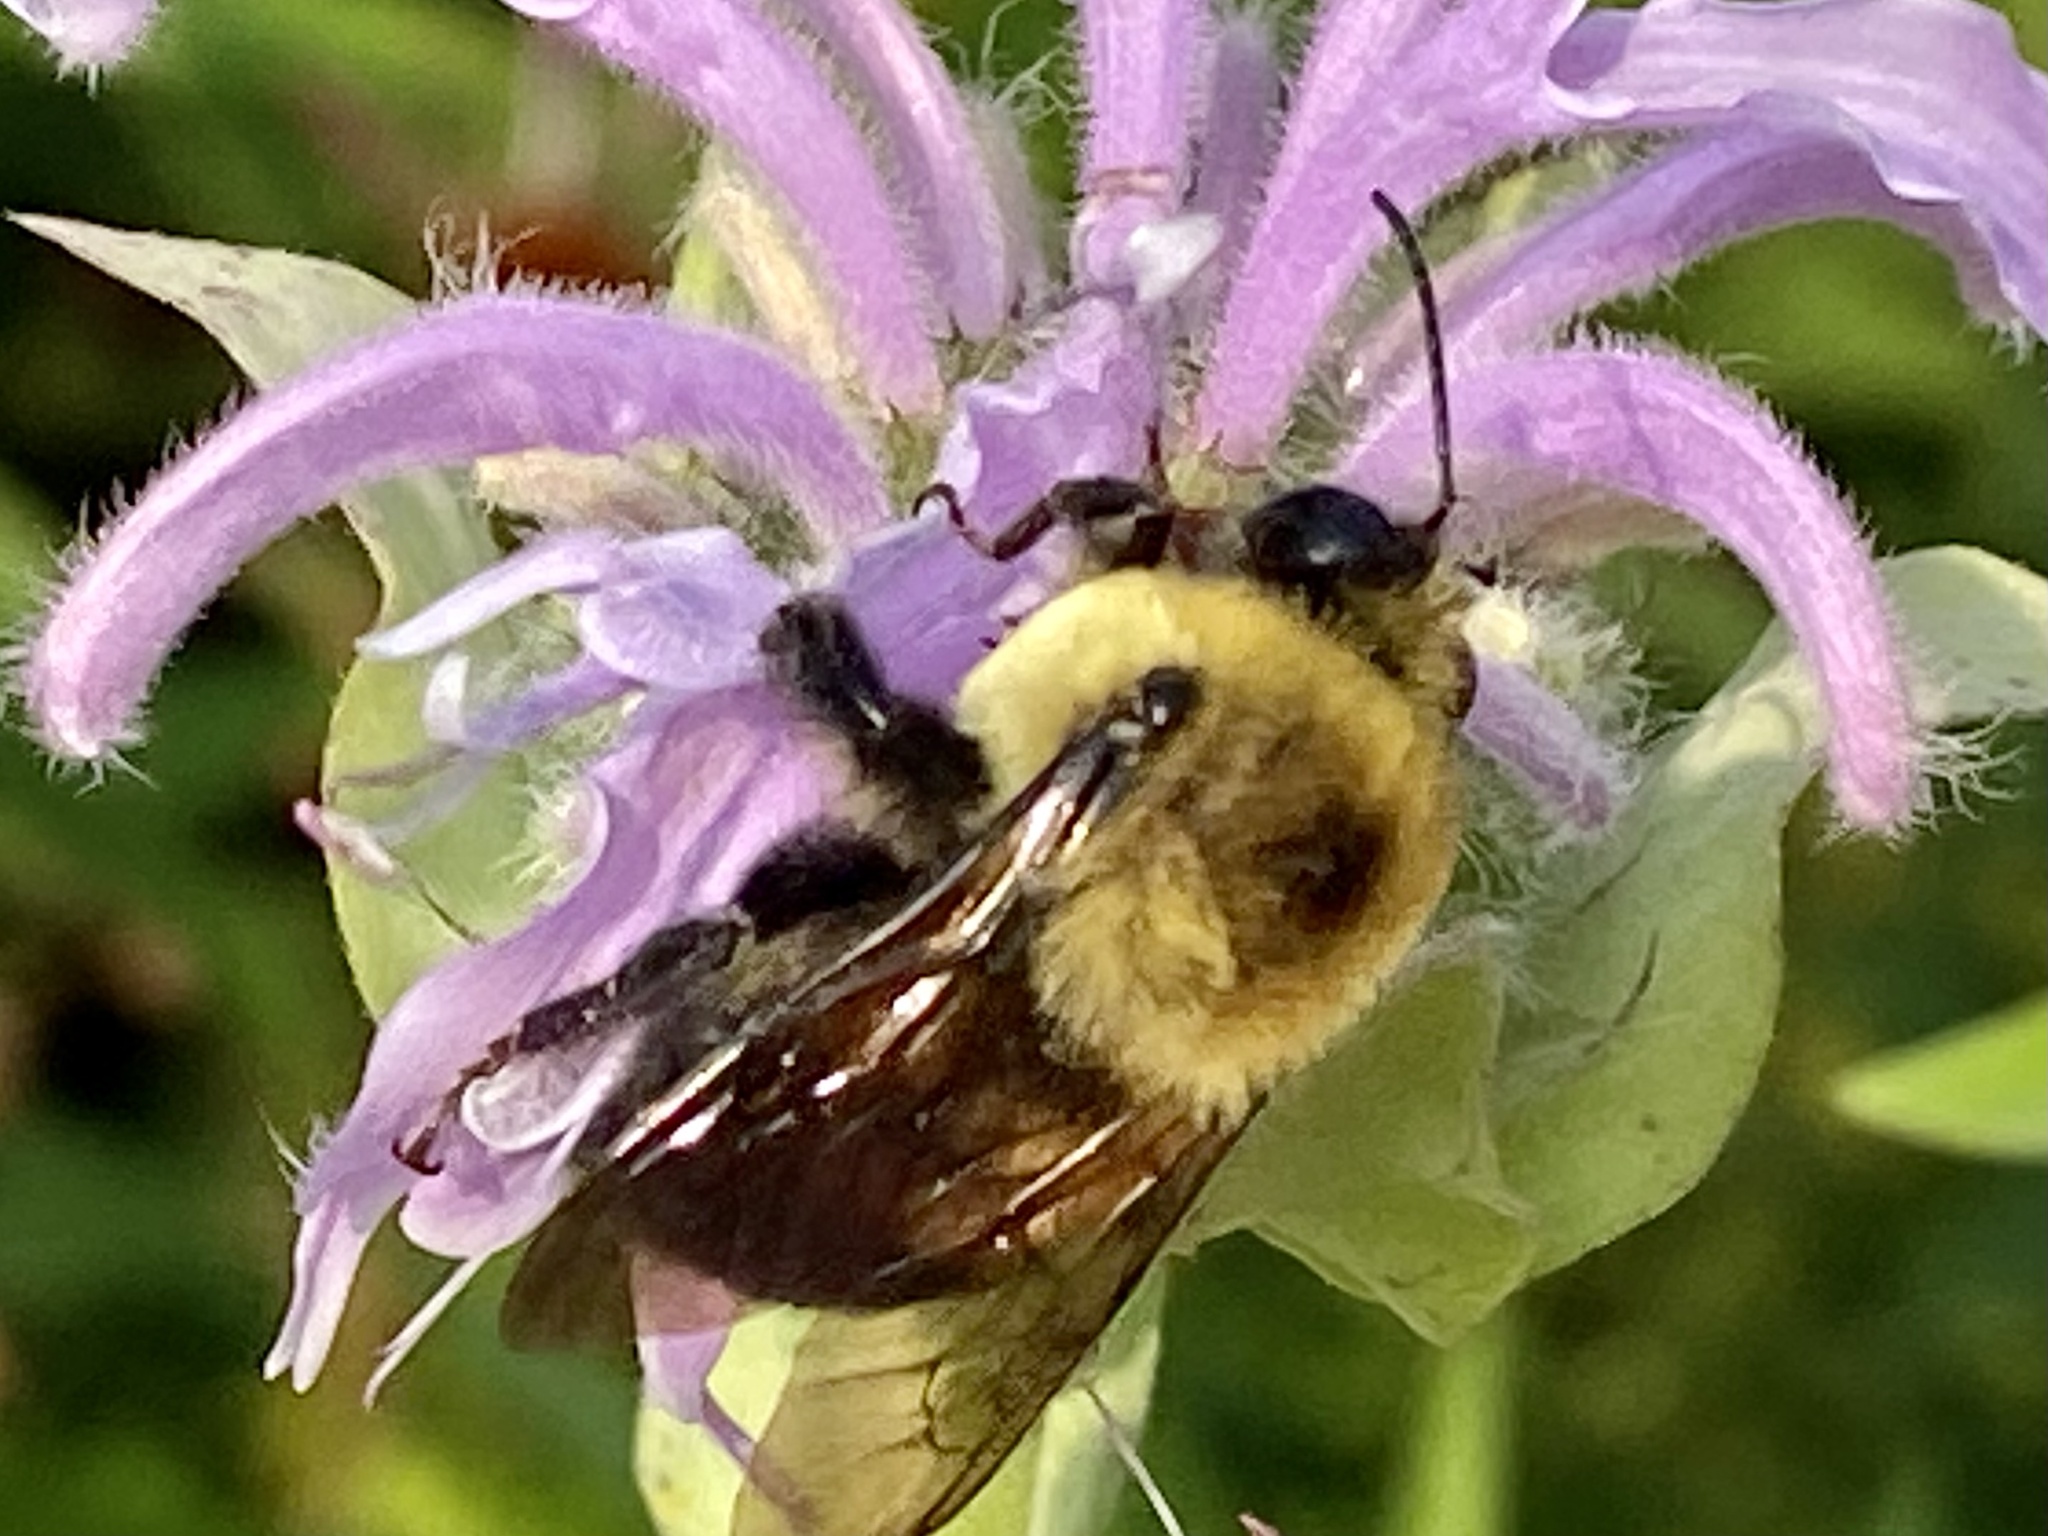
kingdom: Animalia
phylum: Arthropoda
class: Insecta
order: Hymenoptera
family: Apidae
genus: Bombus
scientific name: Bombus griseocollis
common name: Brown-belted bumble bee
